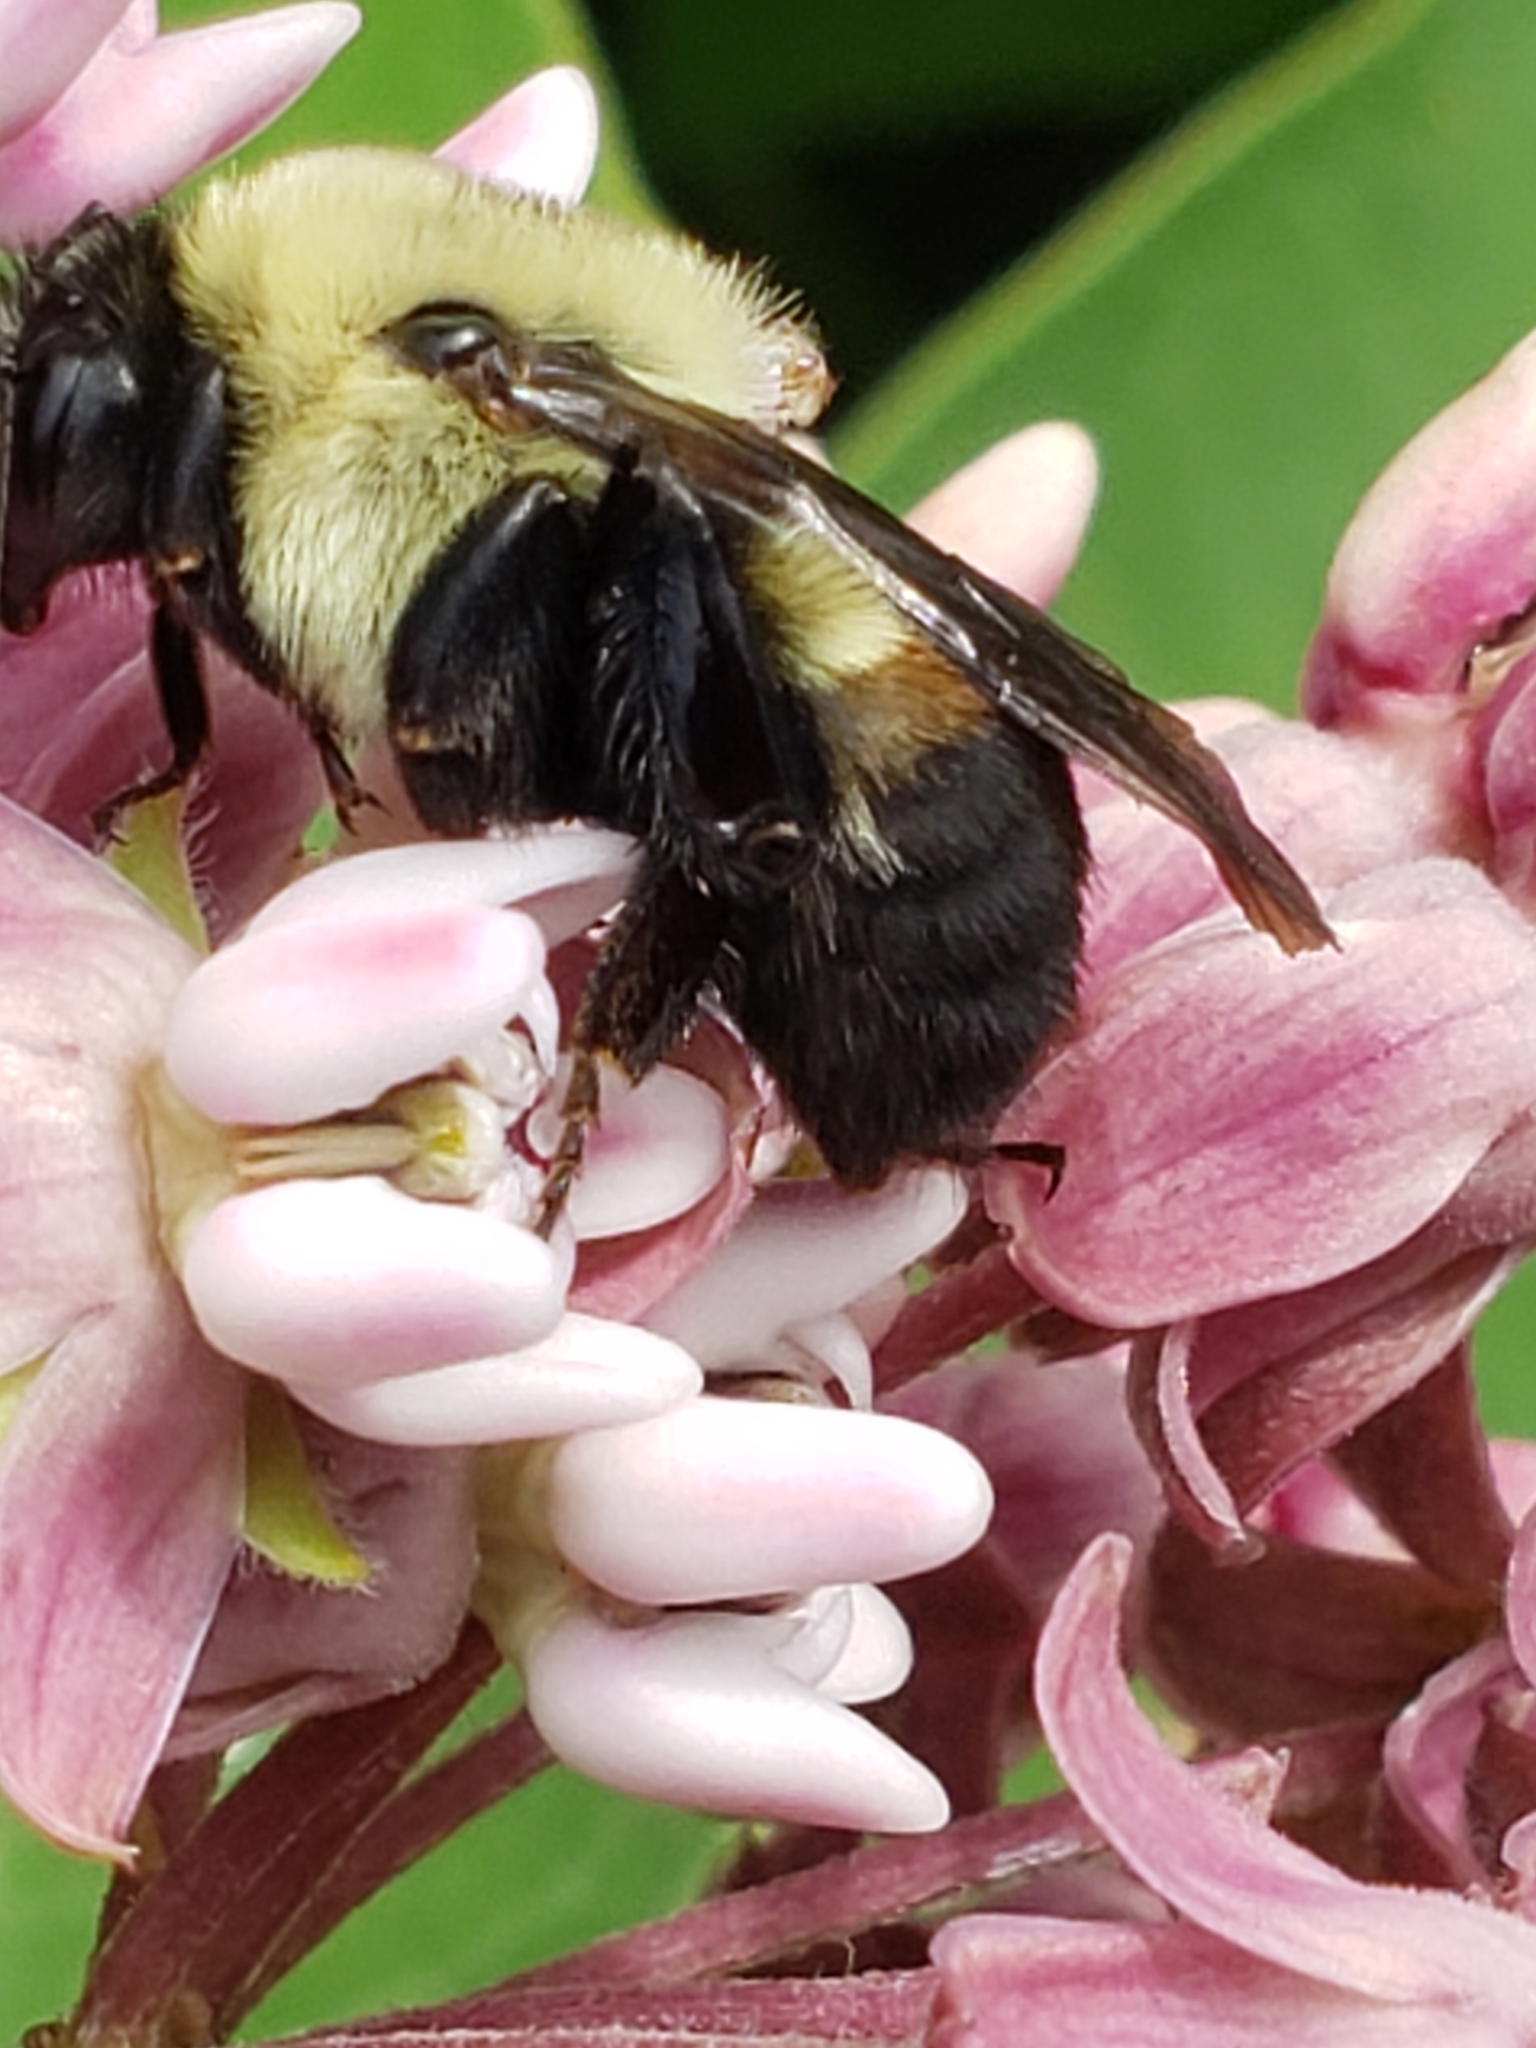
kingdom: Animalia
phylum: Arthropoda
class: Insecta
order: Hymenoptera
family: Apidae
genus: Bombus
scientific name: Bombus griseocollis
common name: Brown-belted bumble bee
